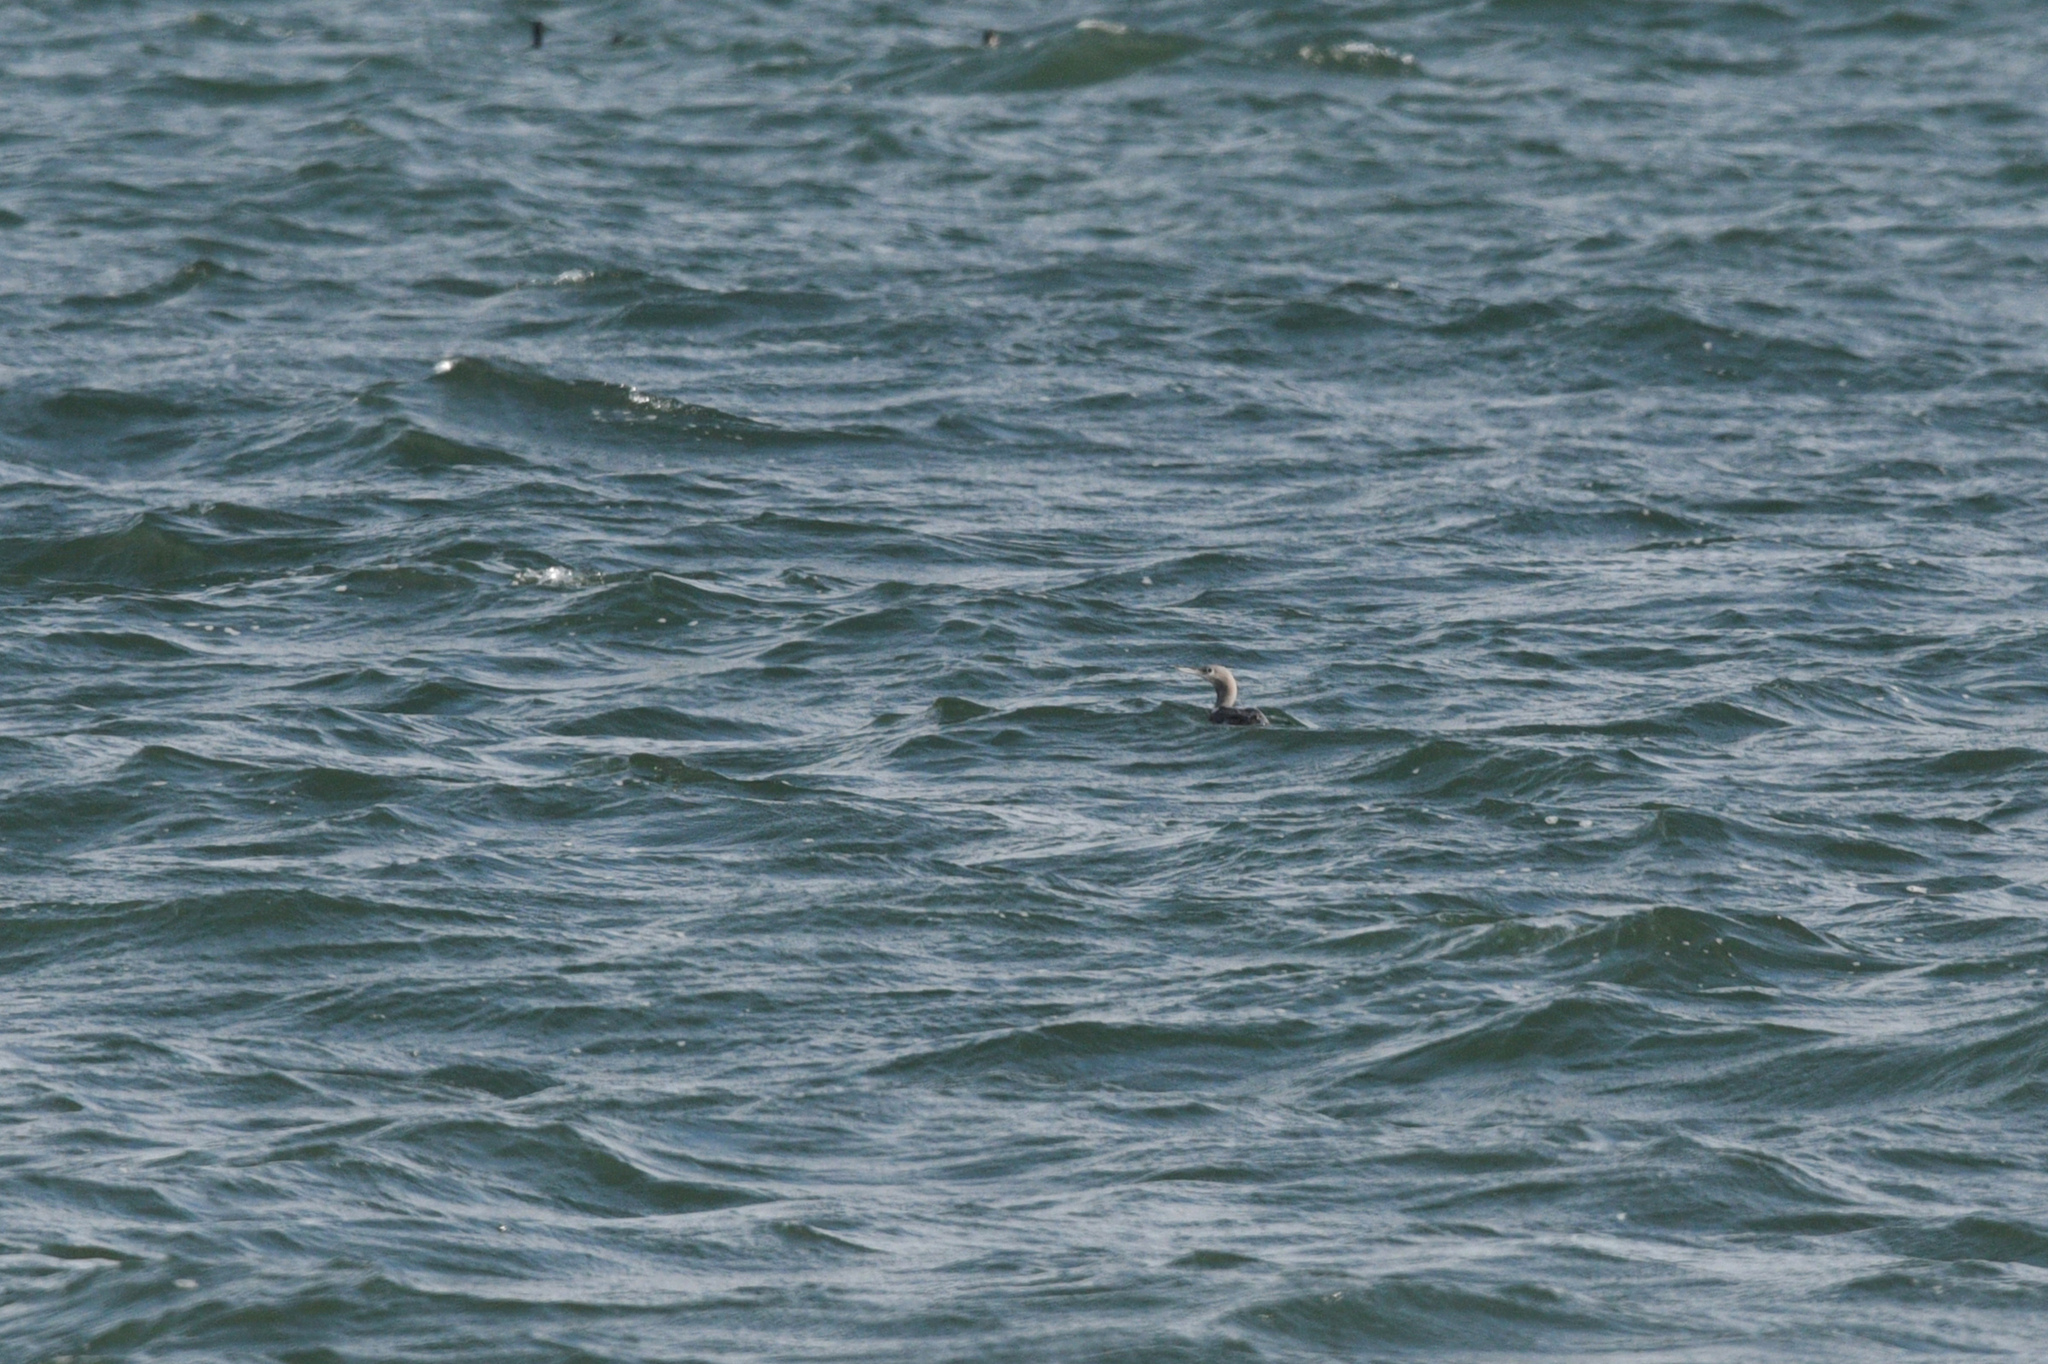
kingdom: Animalia
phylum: Chordata
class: Aves
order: Gaviiformes
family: Gaviidae
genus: Gavia
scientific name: Gavia stellata
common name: Red-throated loon
